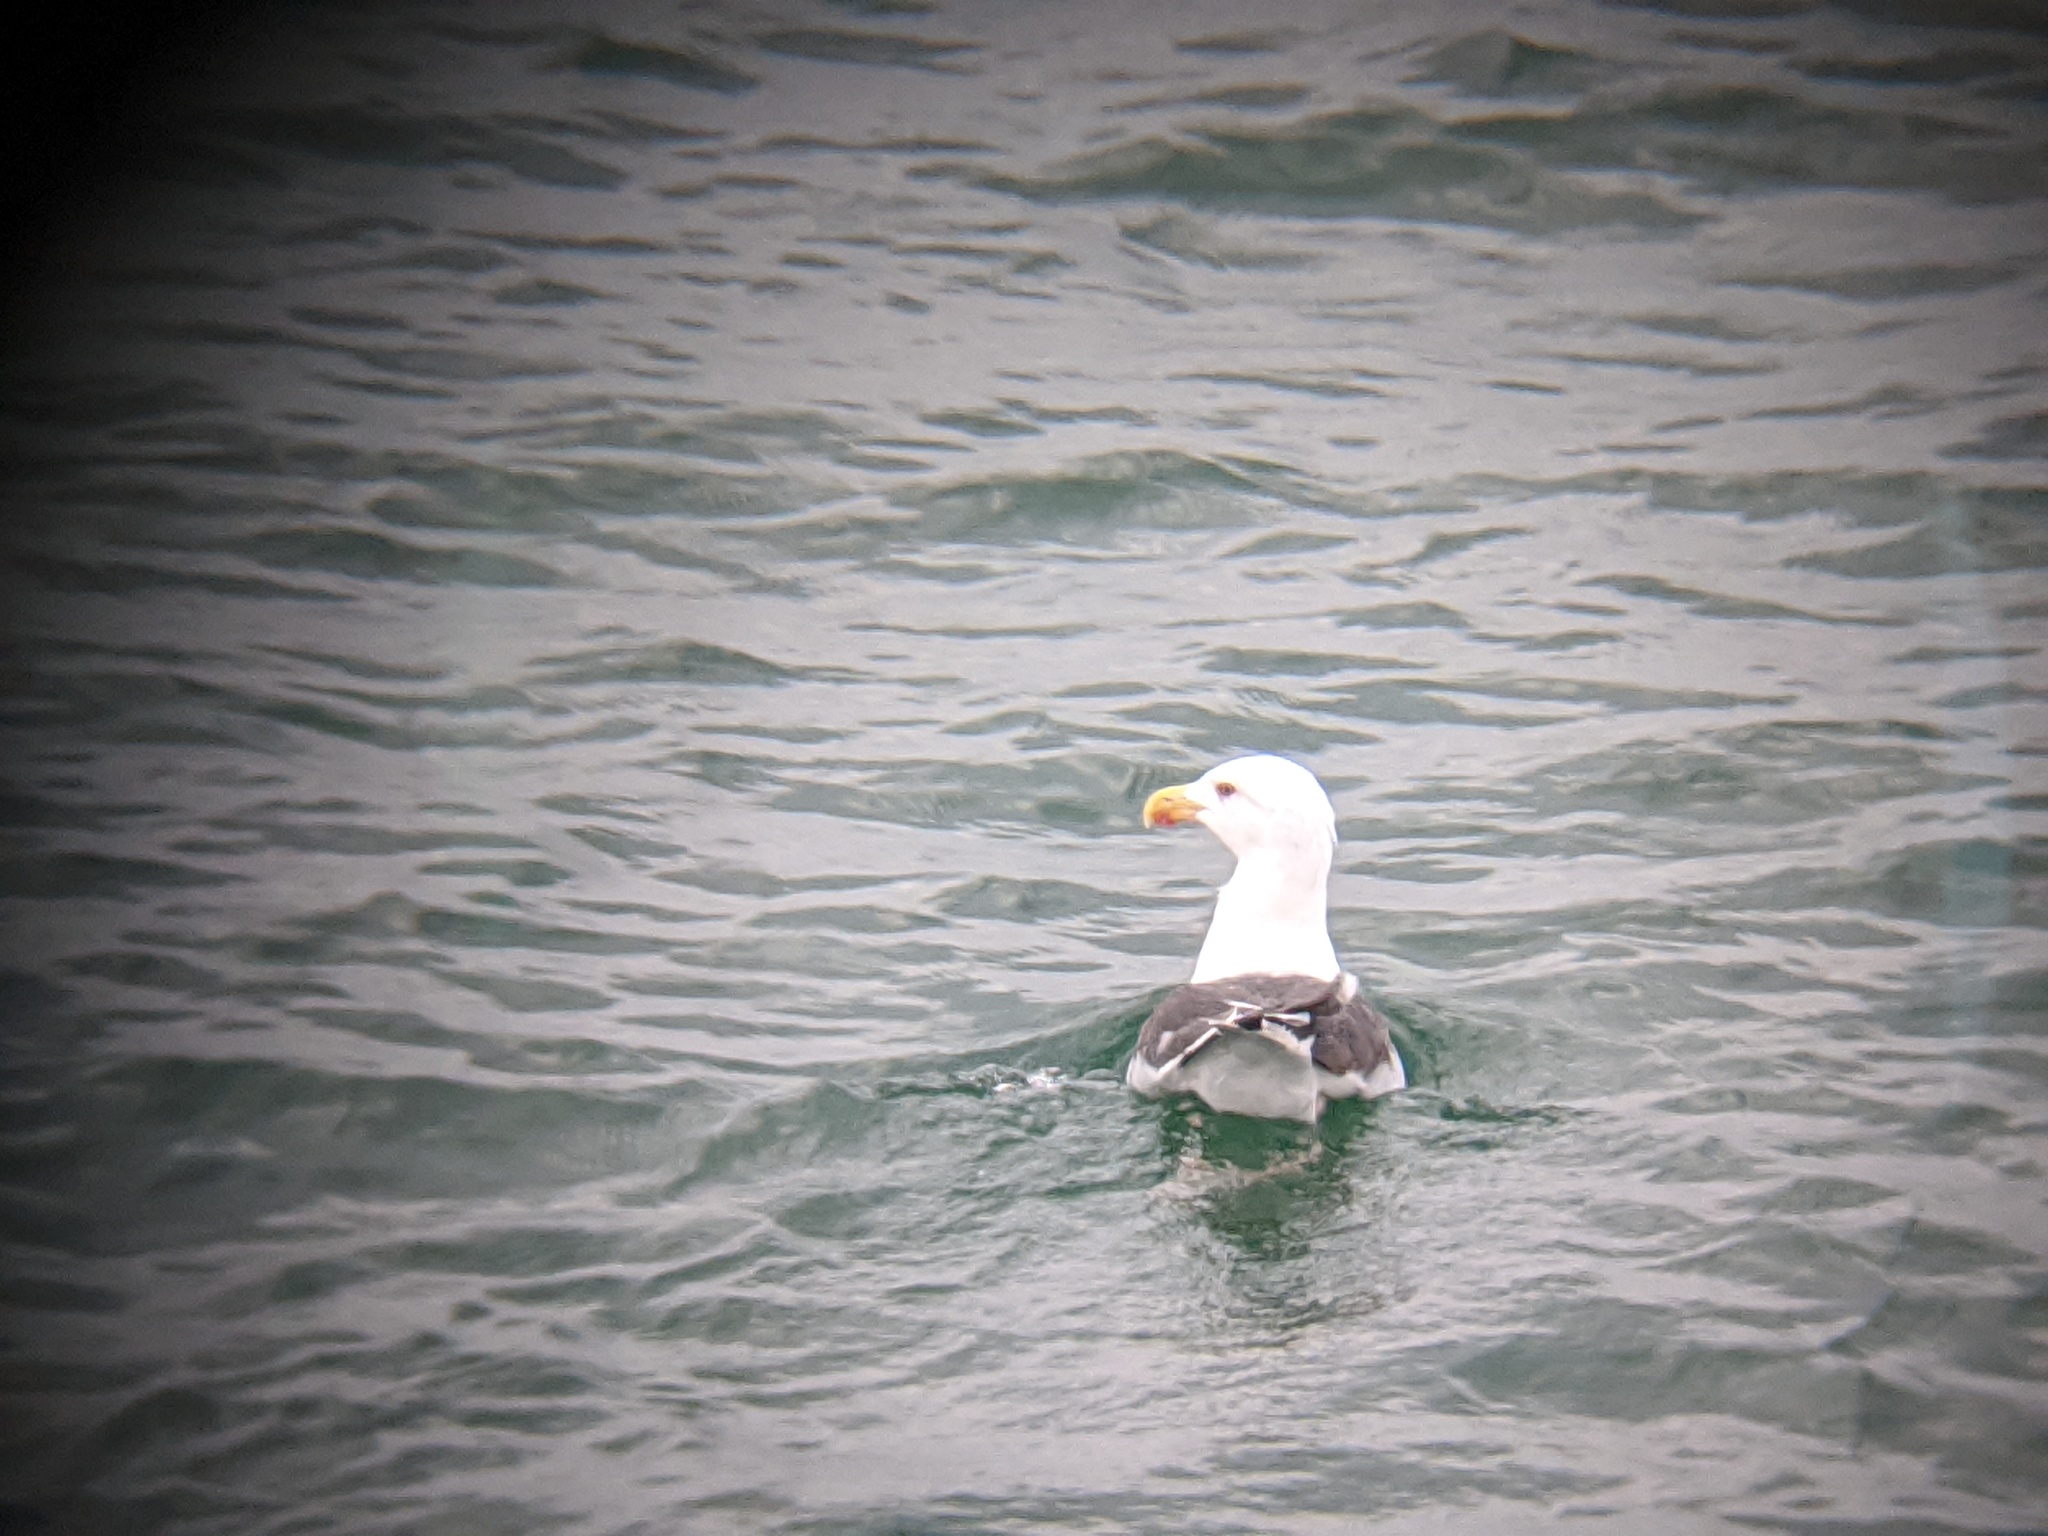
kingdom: Animalia
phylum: Chordata
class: Aves
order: Charadriiformes
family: Laridae
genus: Larus
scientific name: Larus marinus
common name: Great black-backed gull
